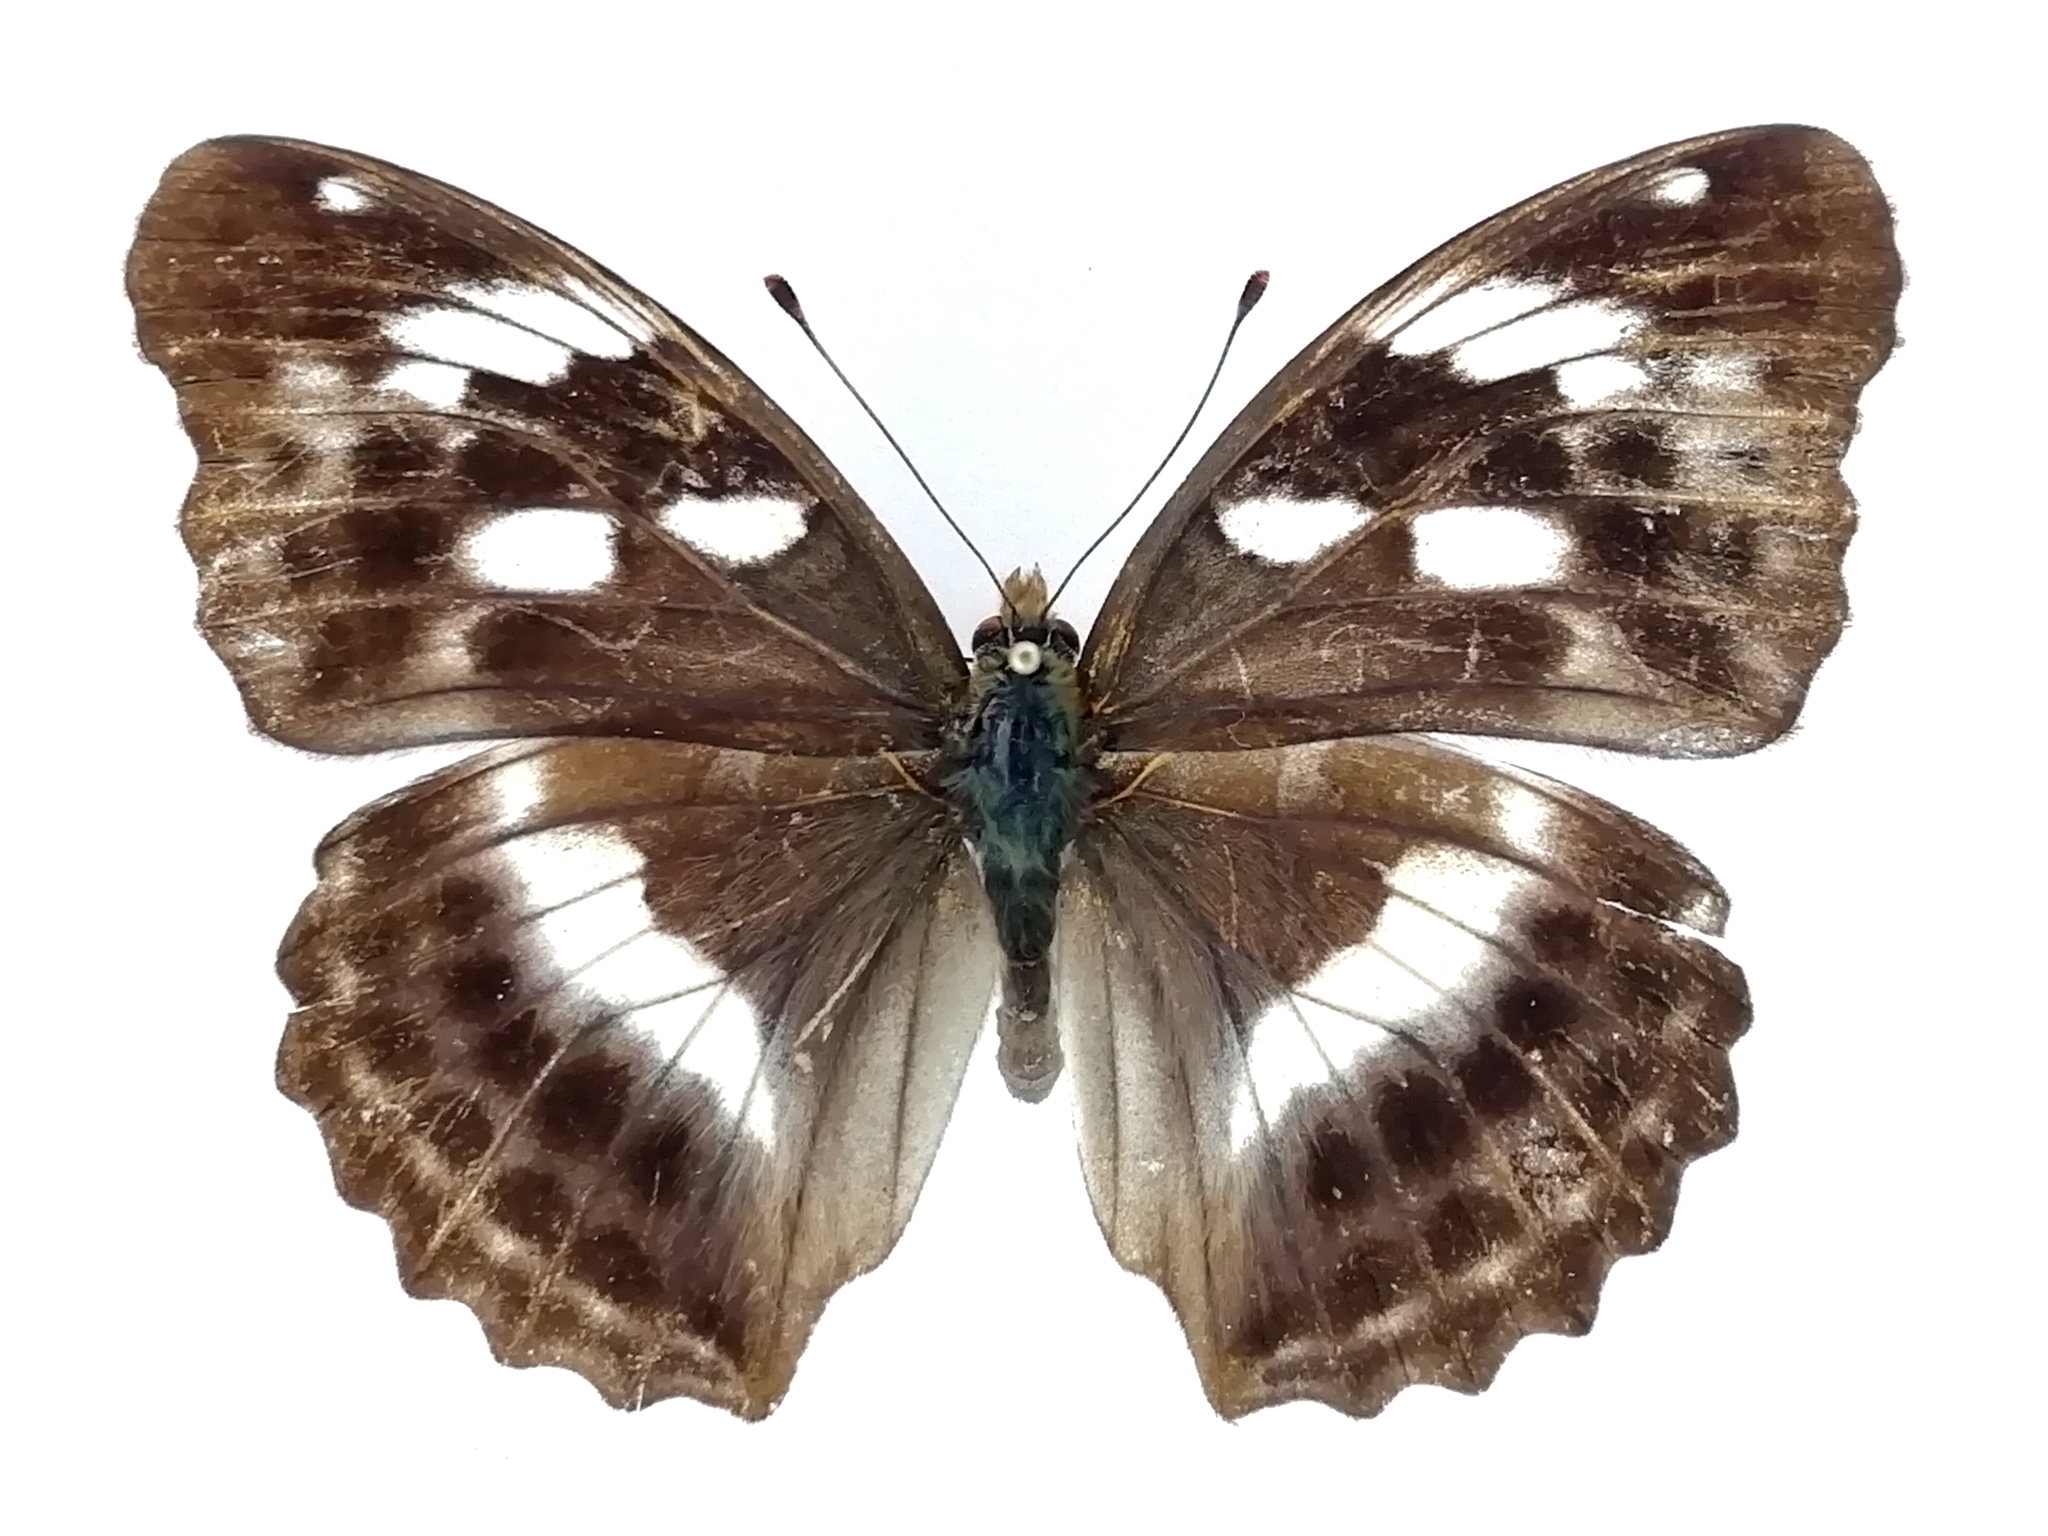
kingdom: Animalia
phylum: Arthropoda
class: Insecta
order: Lepidoptera
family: Nymphalidae
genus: Damora
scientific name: Damora sagana
